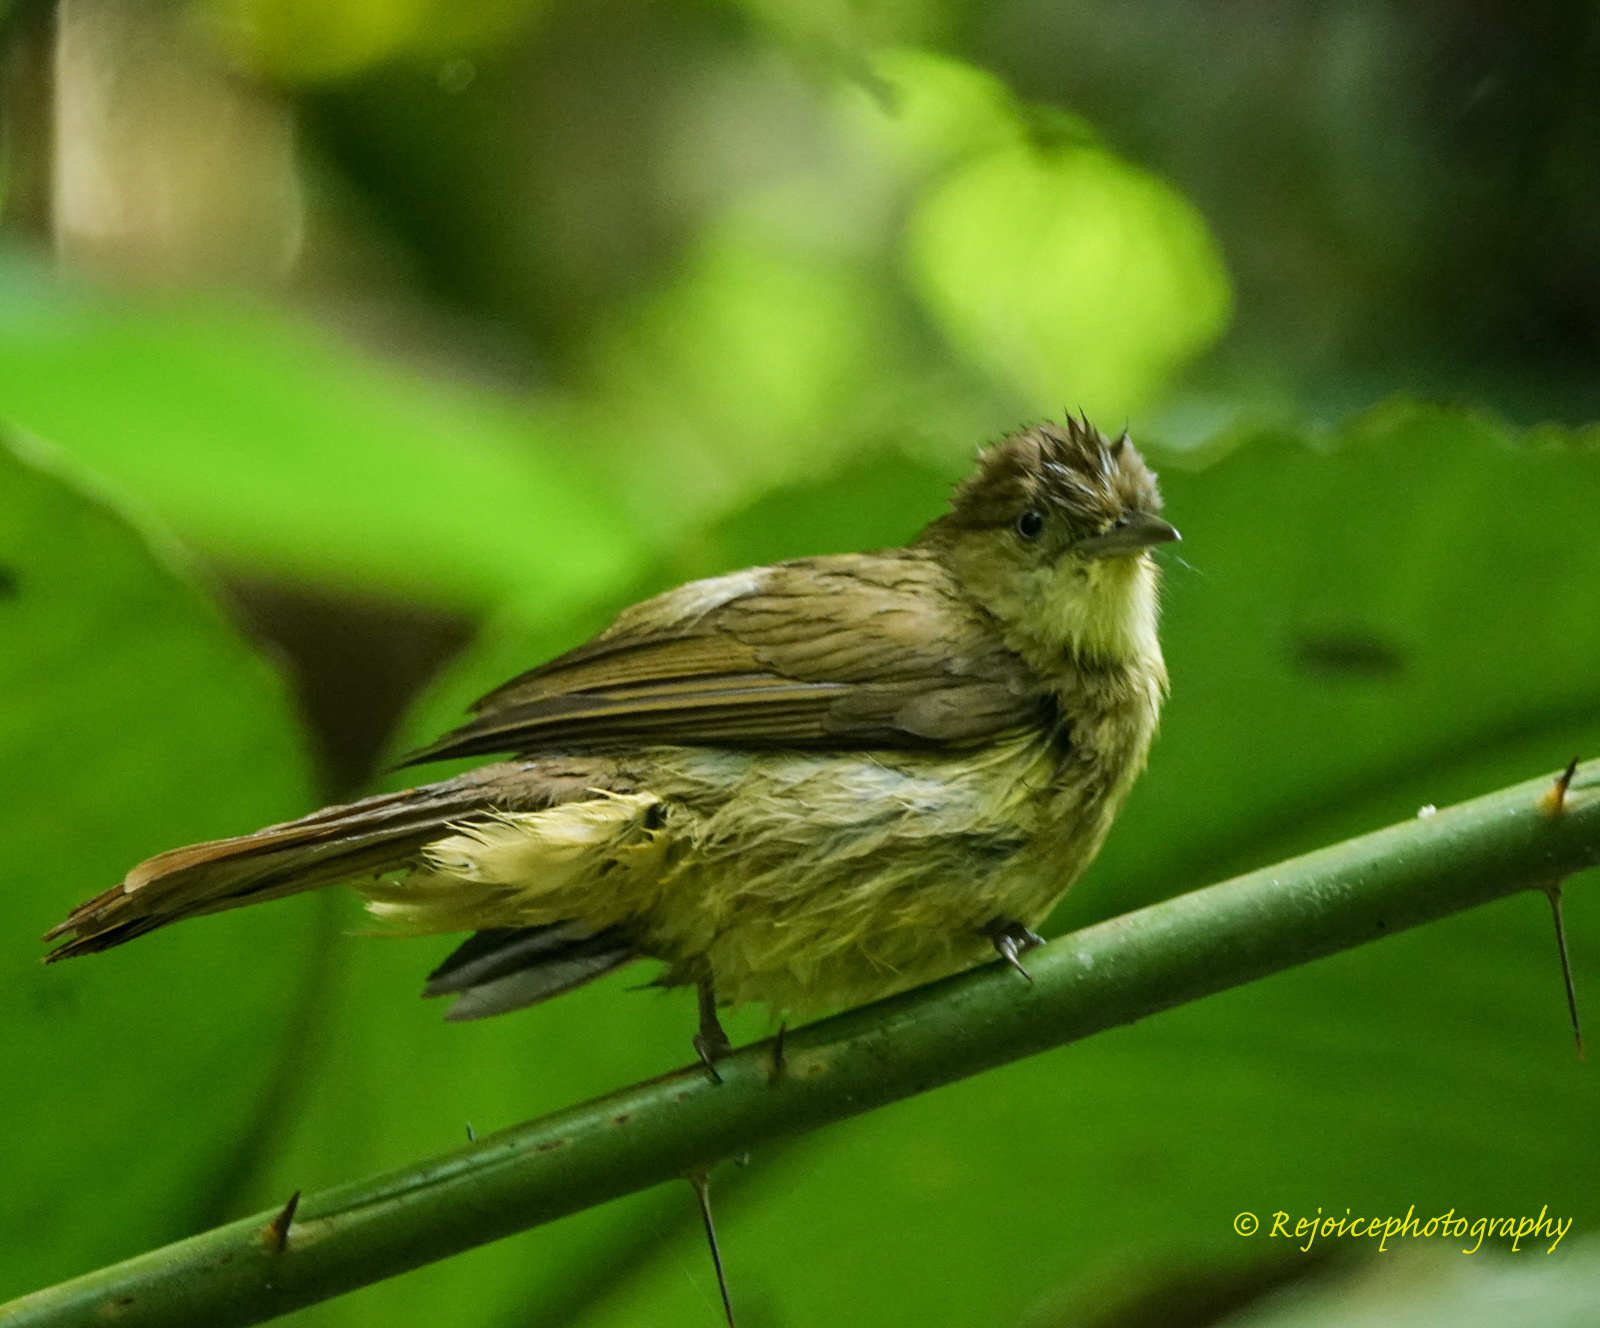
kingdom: Animalia
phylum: Chordata
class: Aves
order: Passeriformes
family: Pycnonotidae
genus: Iole
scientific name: Iole virescens
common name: Olive bulbul
